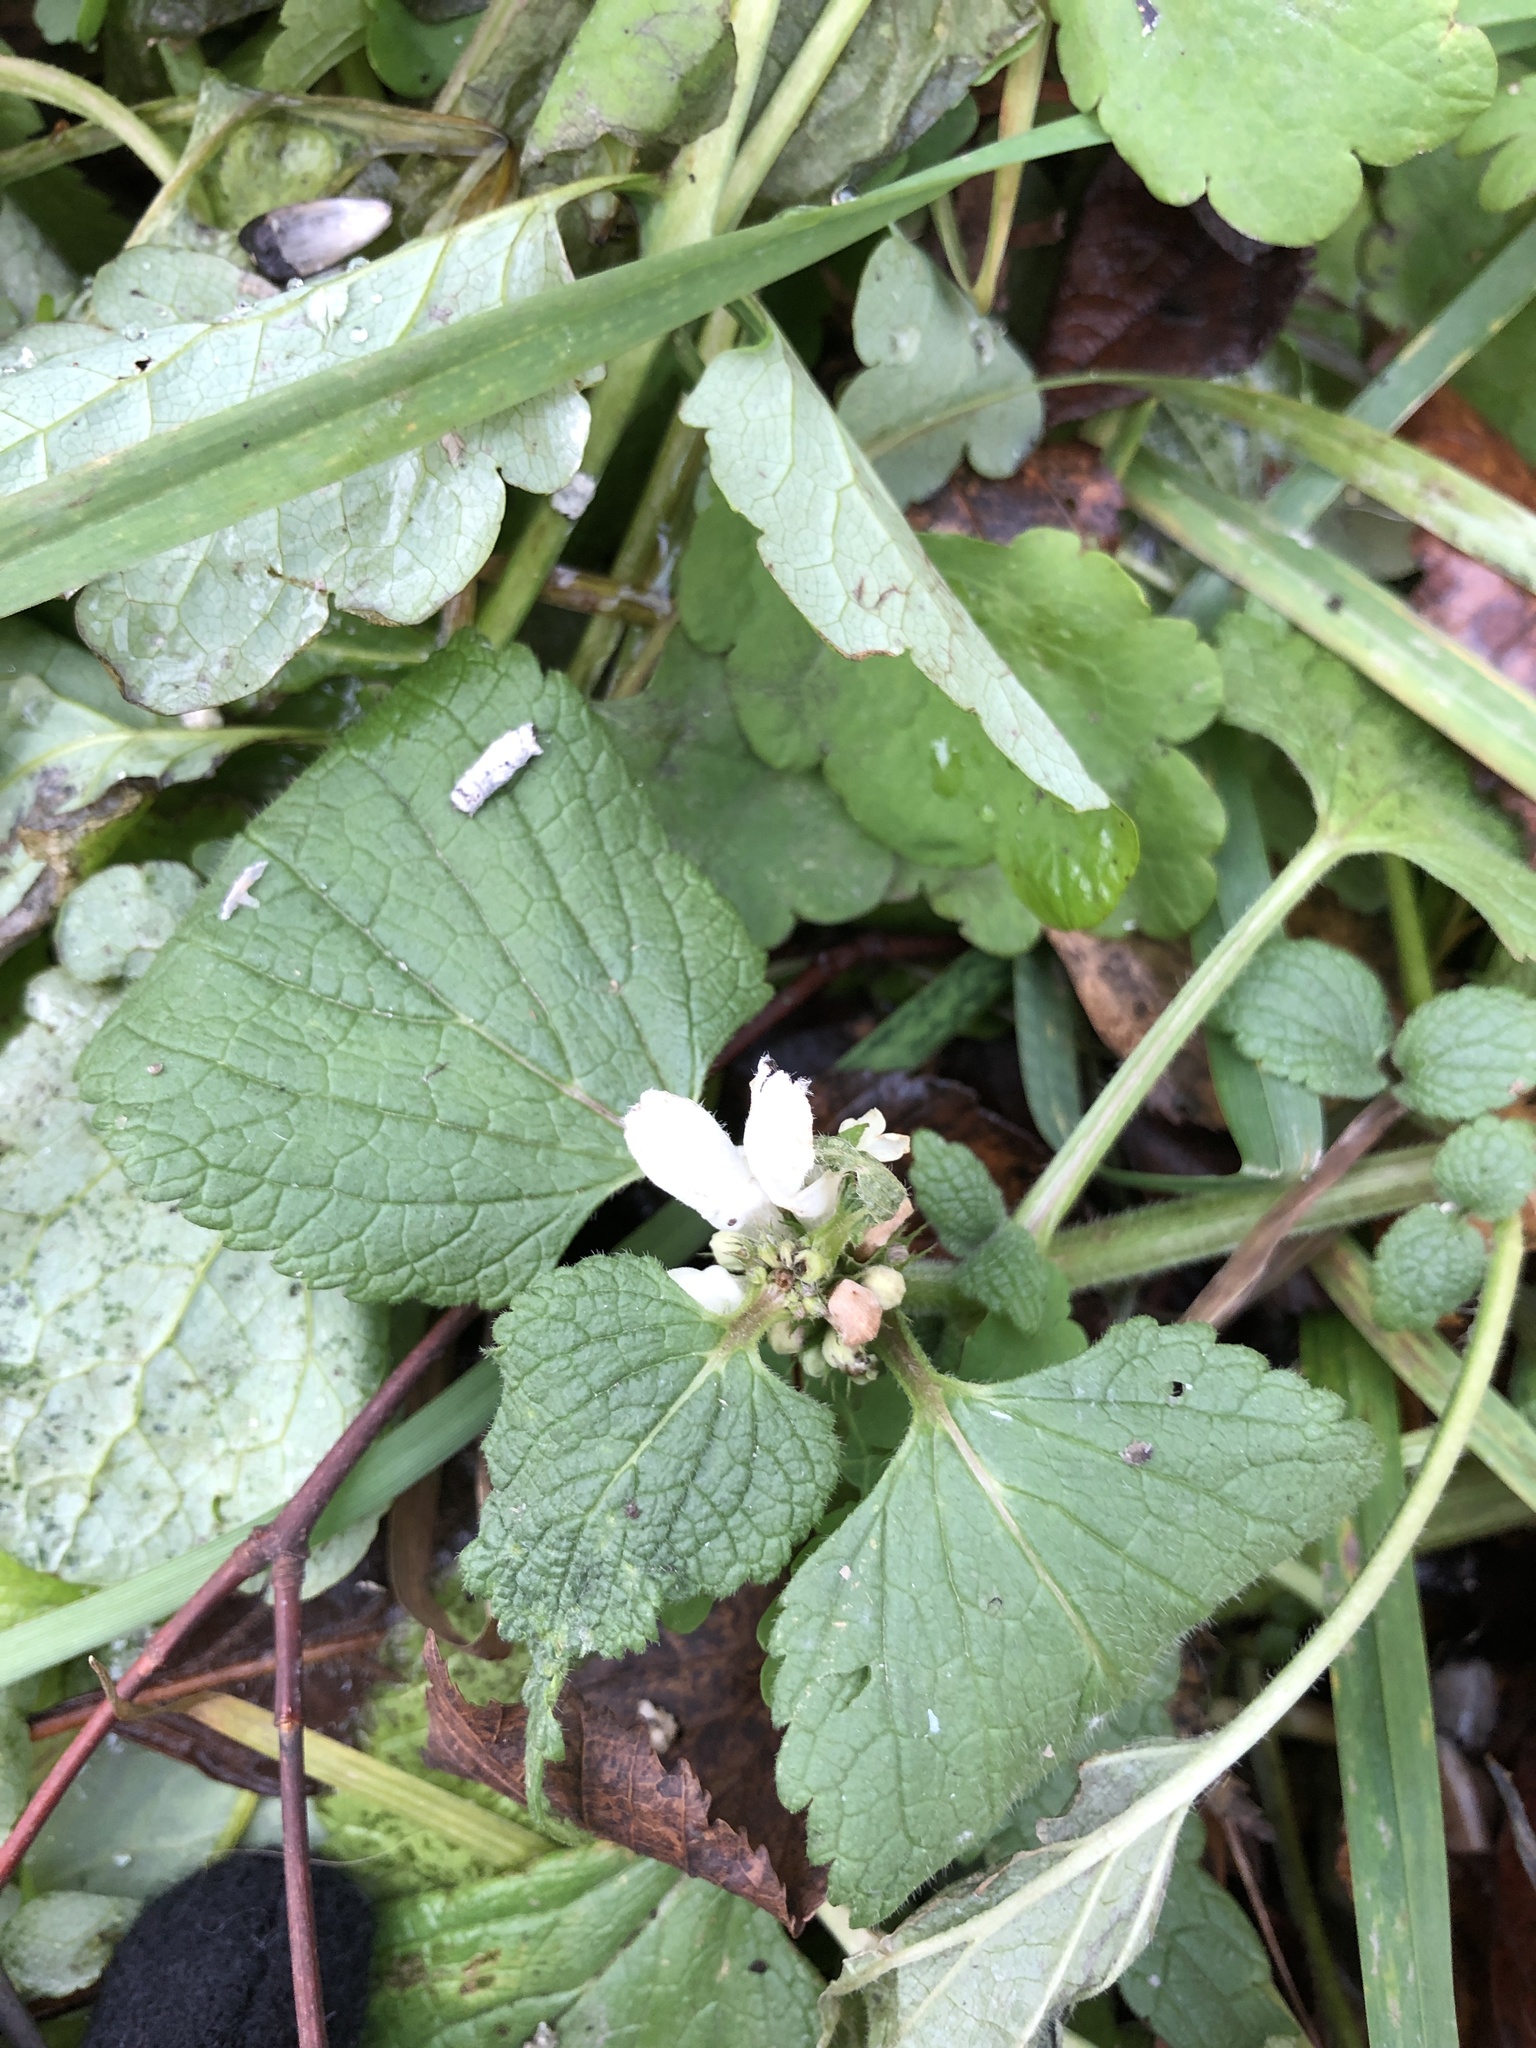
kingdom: Plantae
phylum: Tracheophyta
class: Magnoliopsida
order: Lamiales
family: Lamiaceae
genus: Lamium
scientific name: Lamium album
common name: White dead-nettle
